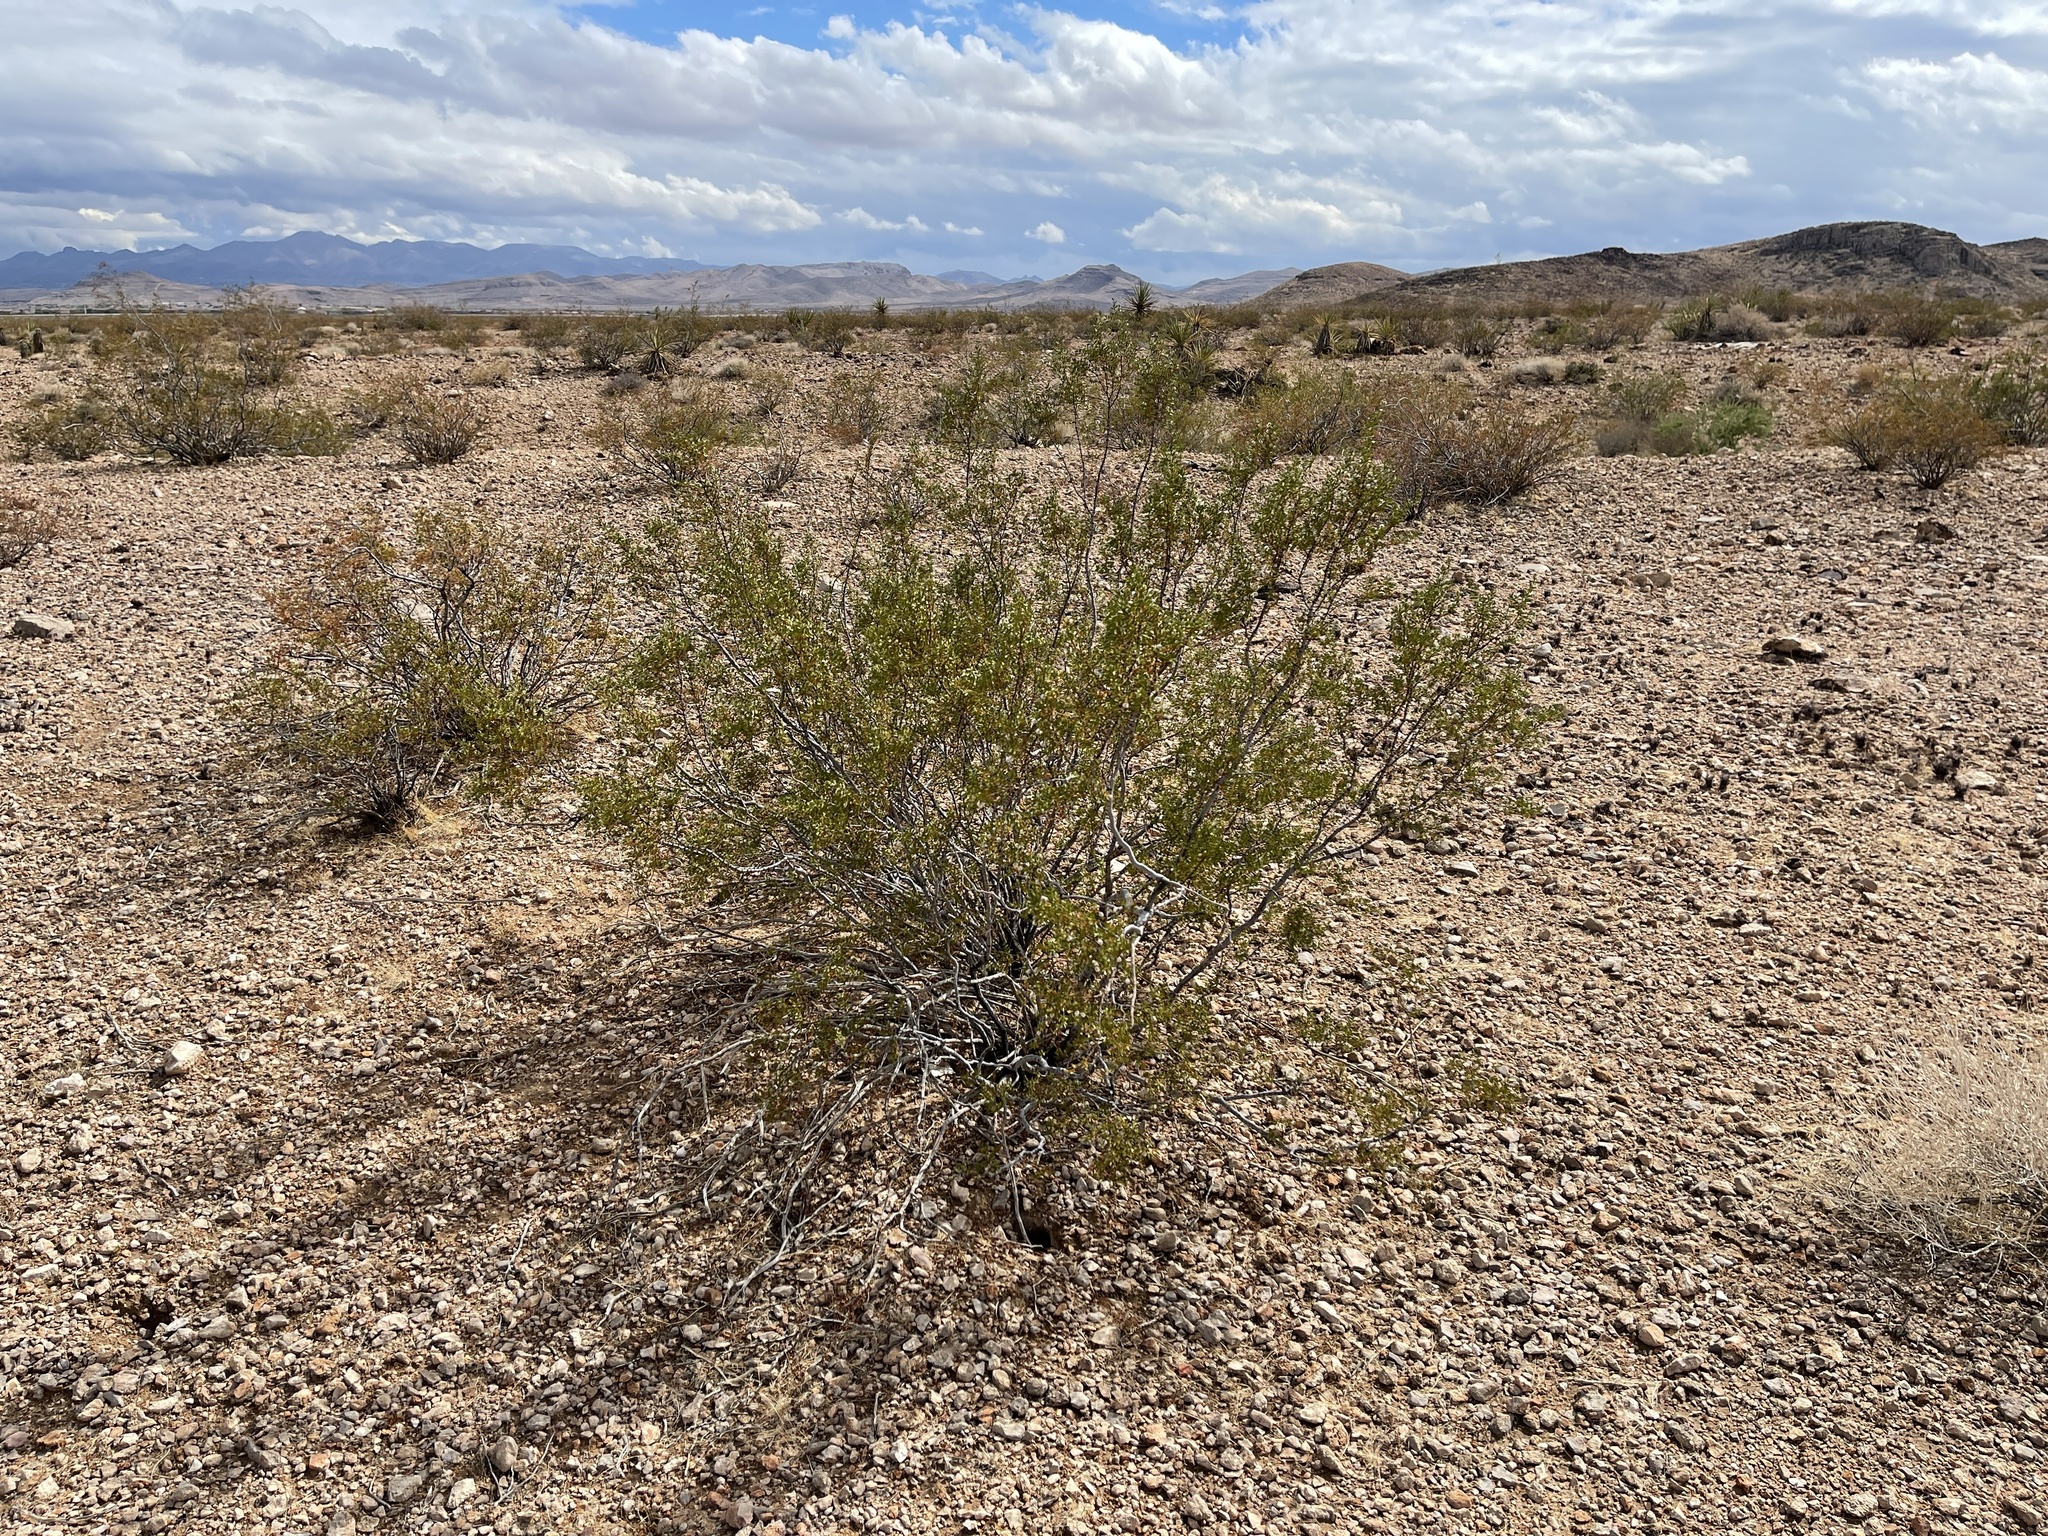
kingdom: Plantae
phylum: Tracheophyta
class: Magnoliopsida
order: Zygophyllales
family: Zygophyllaceae
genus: Larrea
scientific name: Larrea tridentata
